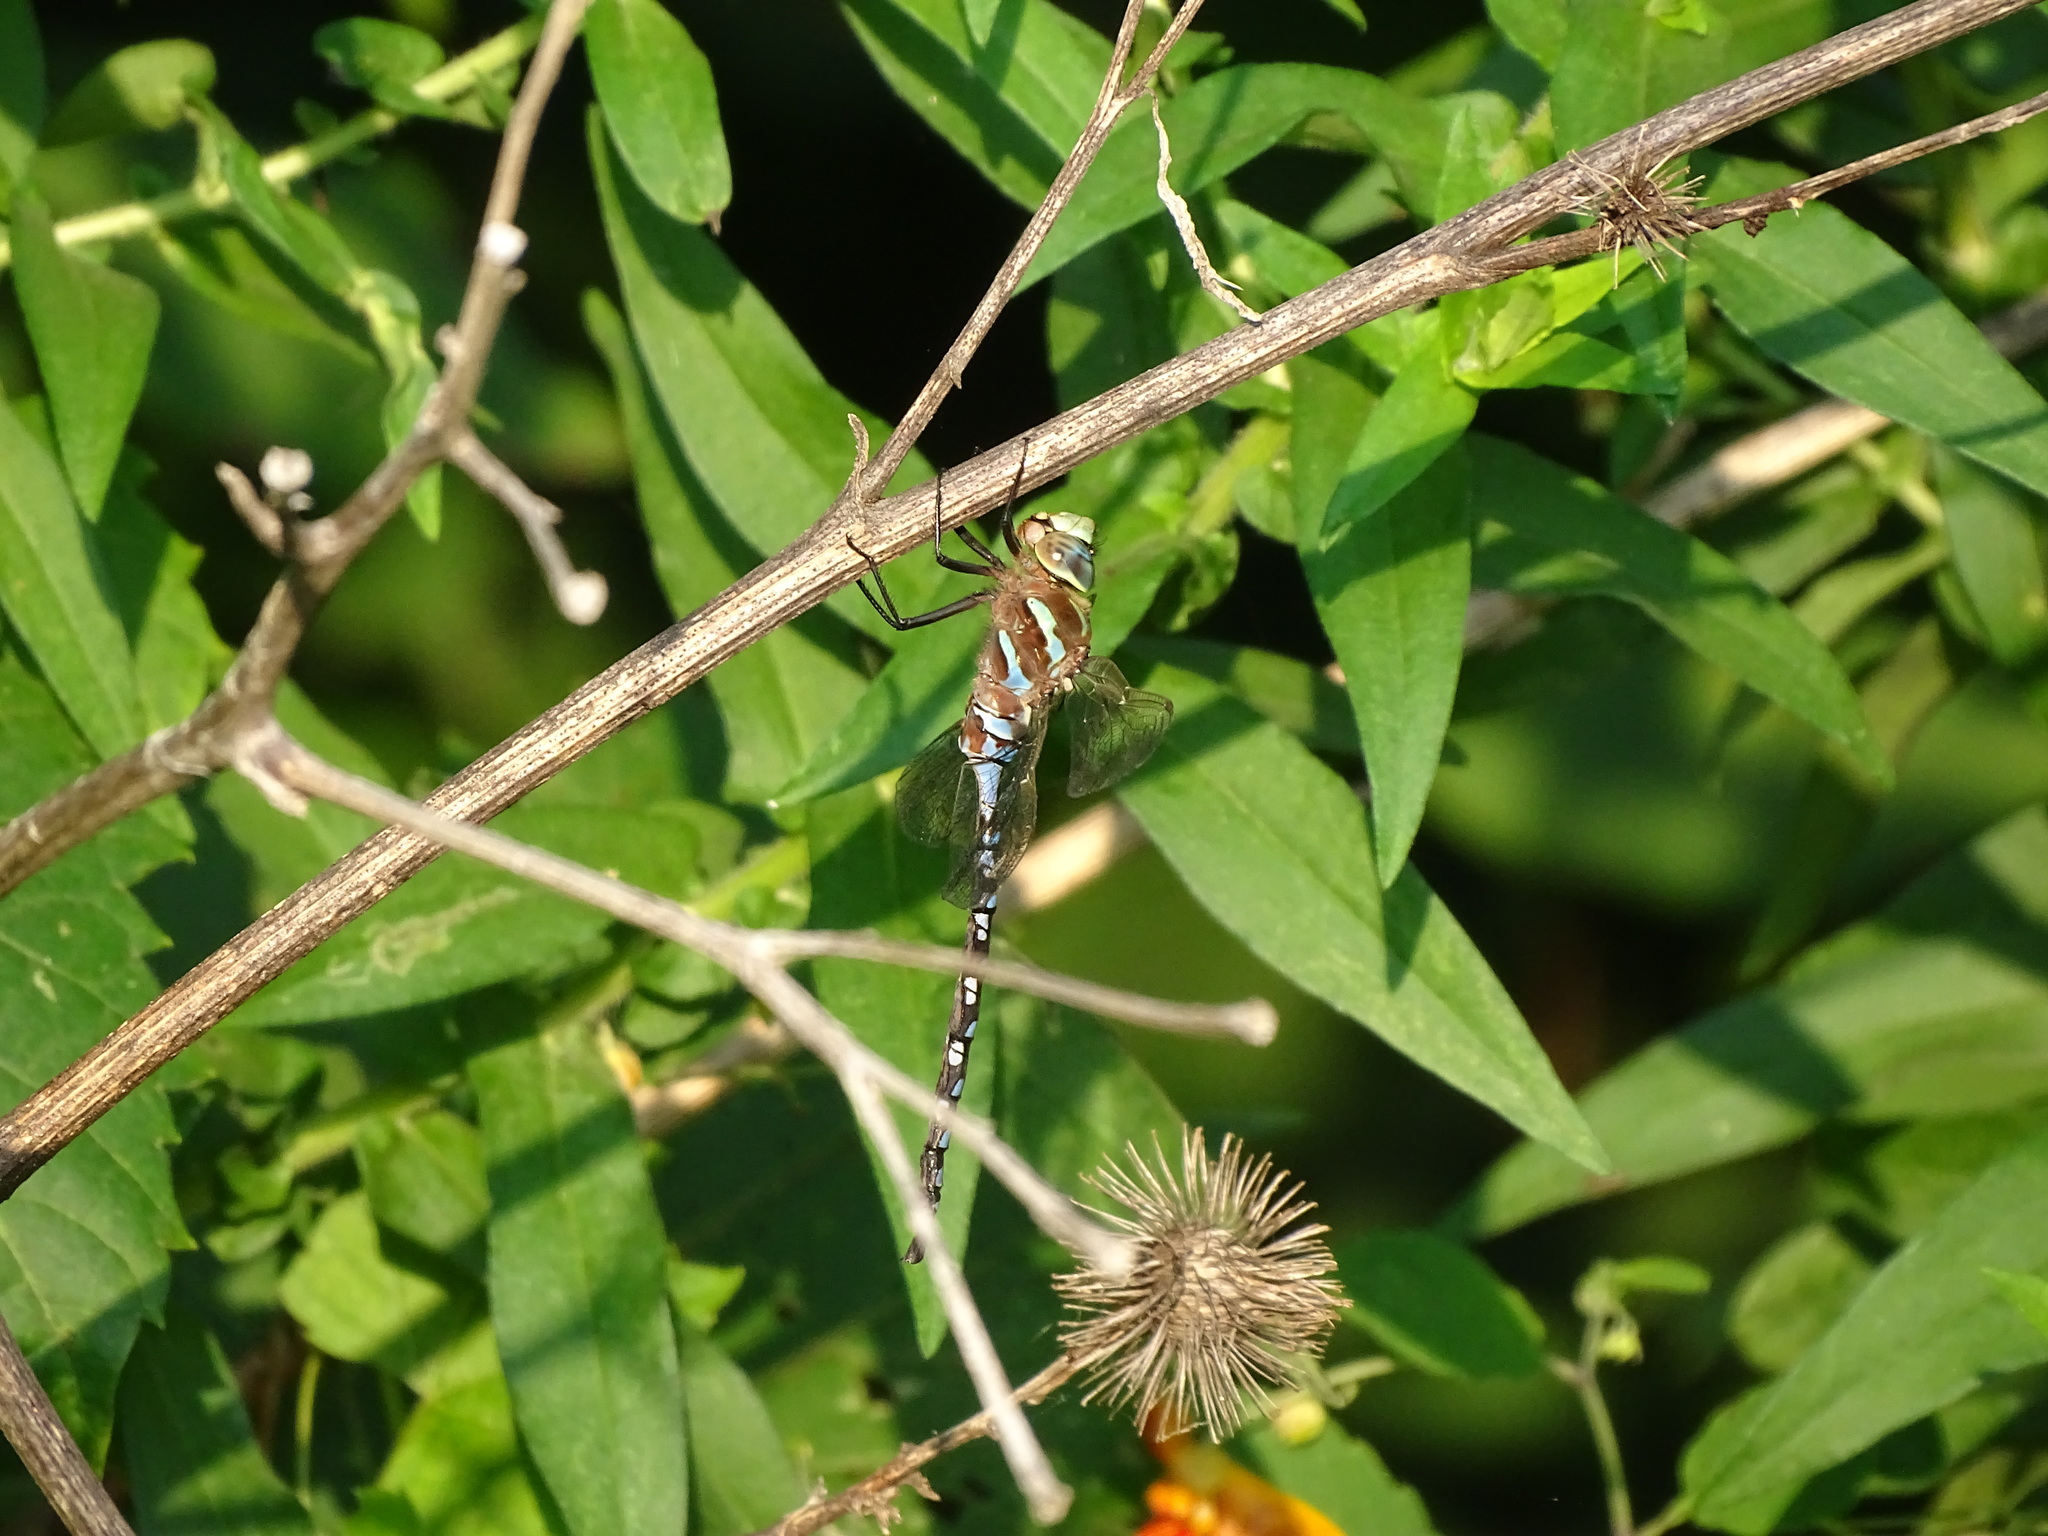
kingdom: Animalia
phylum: Arthropoda
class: Insecta
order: Odonata
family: Aeshnidae
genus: Aeshna
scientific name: Aeshna constricta
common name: Lance-tipped darner
